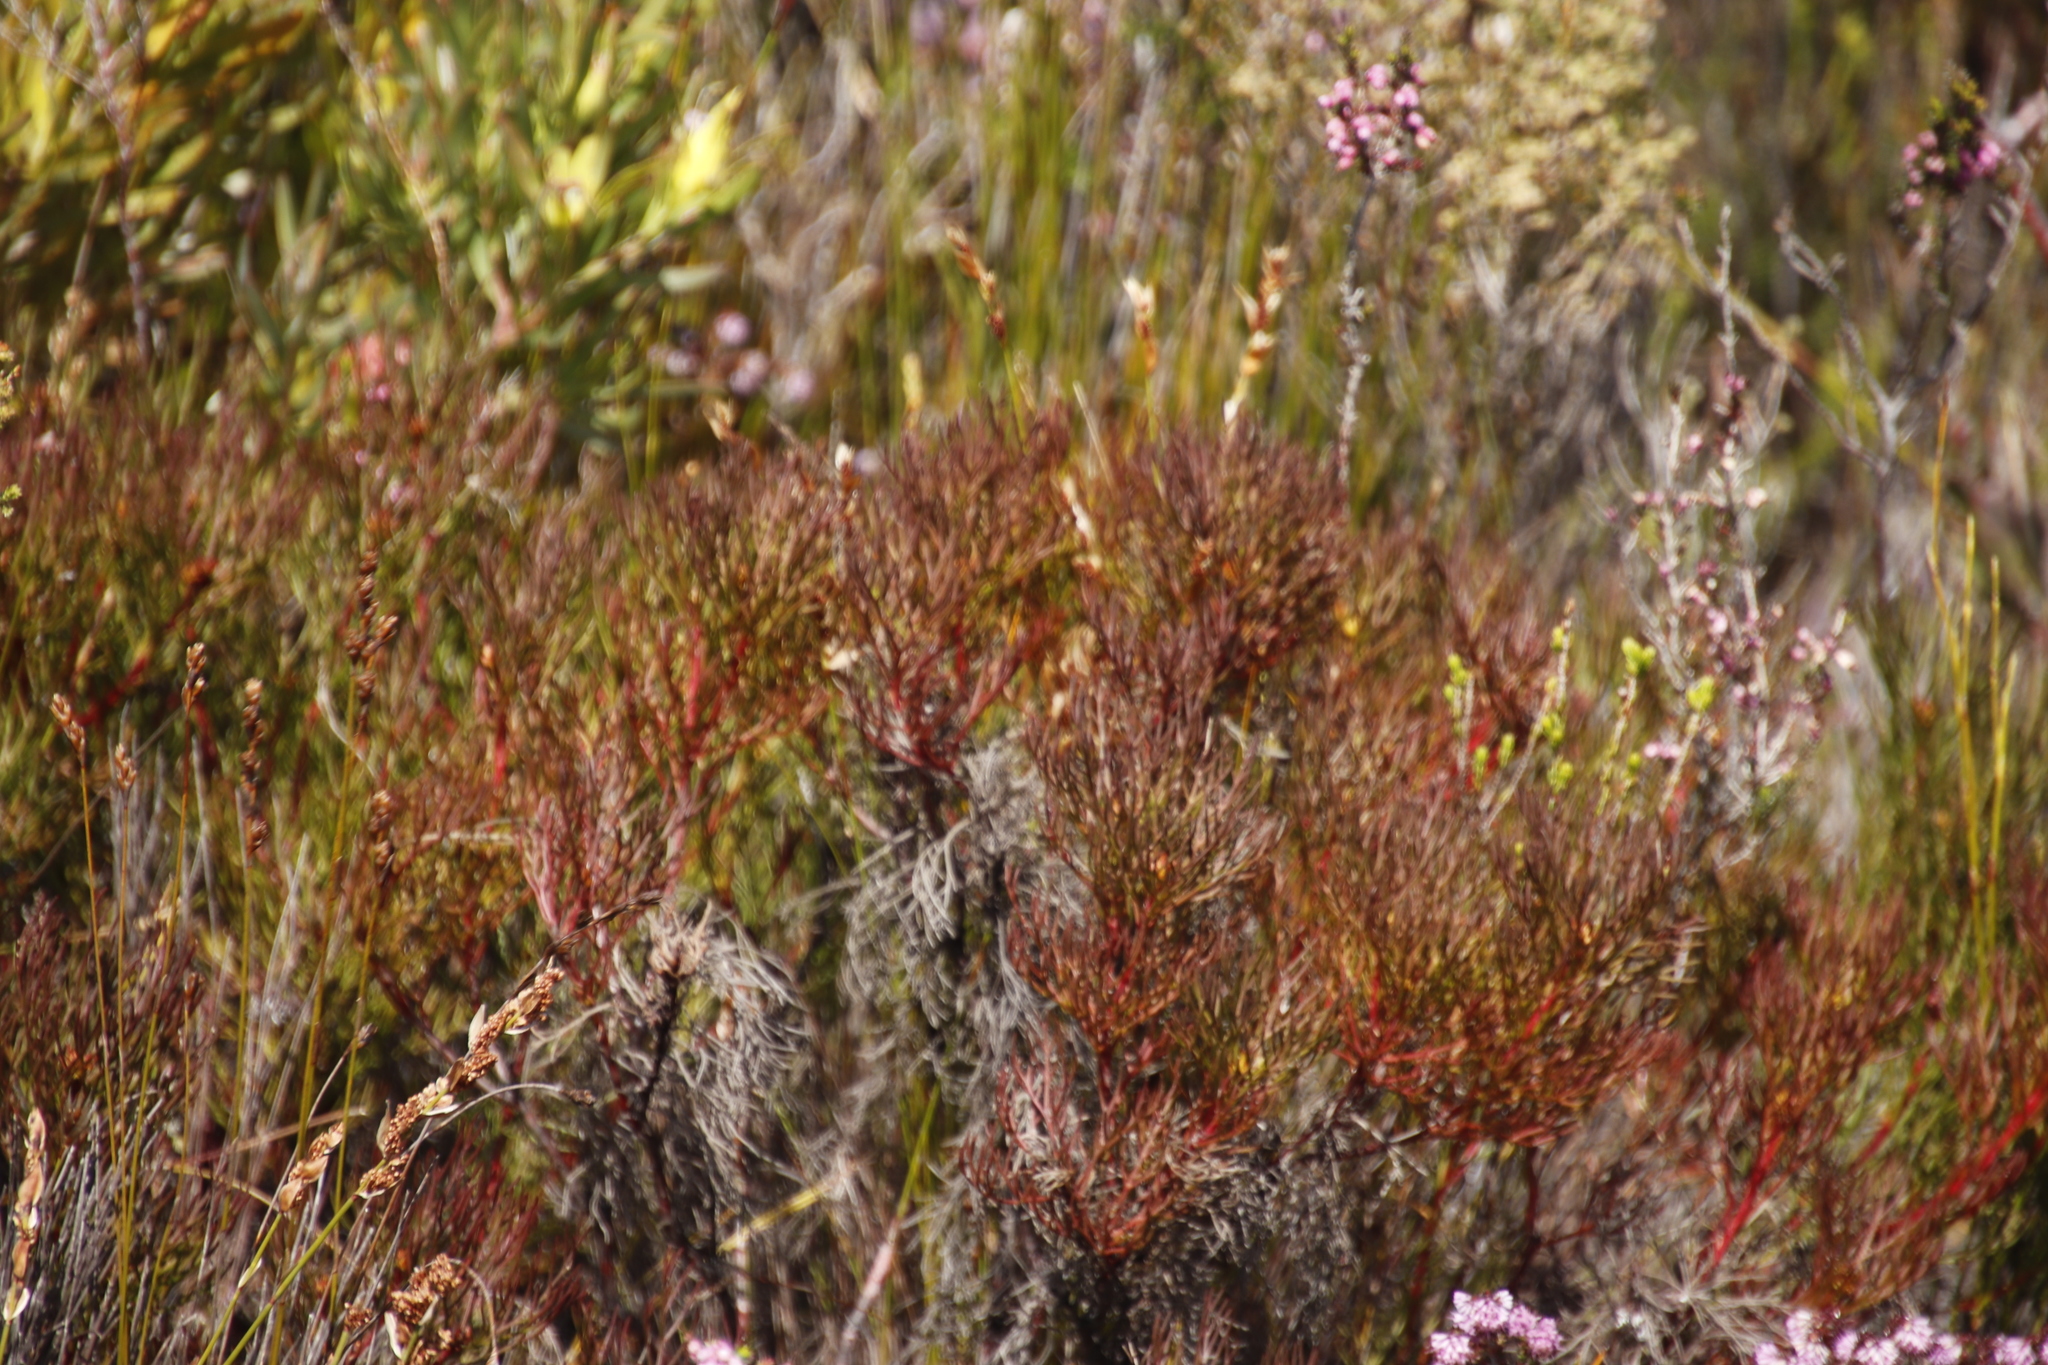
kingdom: Plantae
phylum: Tracheophyta
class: Magnoliopsida
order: Proteales
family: Proteaceae
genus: Serruria
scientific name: Serruria bolusii
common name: Agulhas spiderhead
